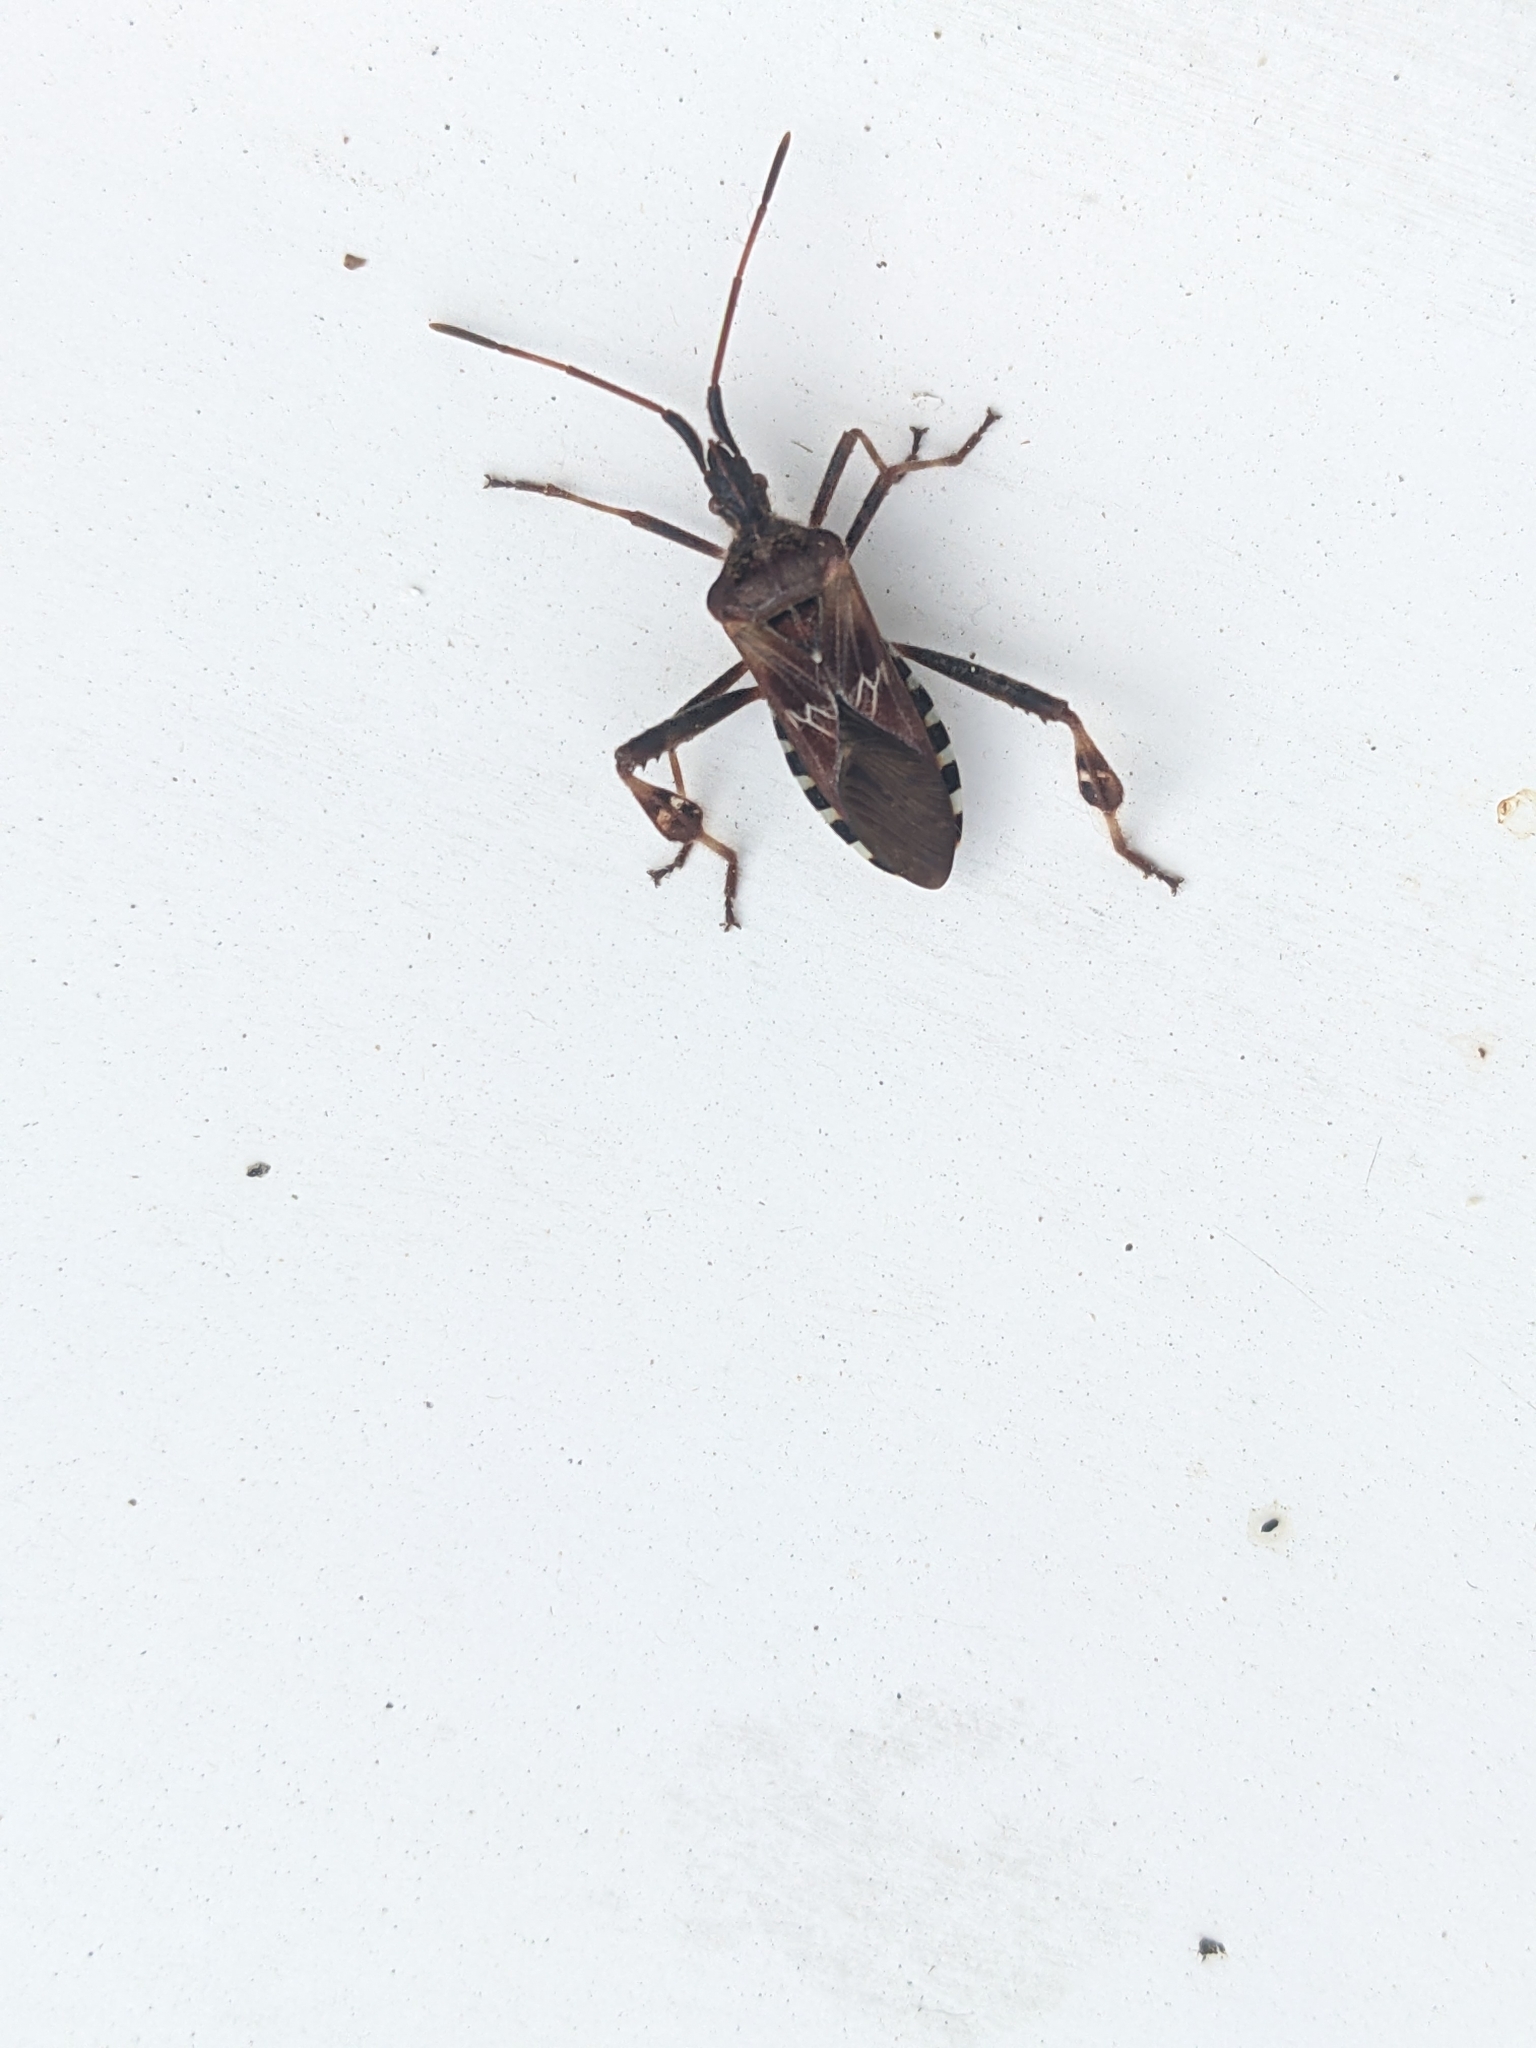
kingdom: Animalia
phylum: Arthropoda
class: Insecta
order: Hemiptera
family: Coreidae
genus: Leptoglossus
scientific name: Leptoglossus occidentalis
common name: Western conifer-seed bug
